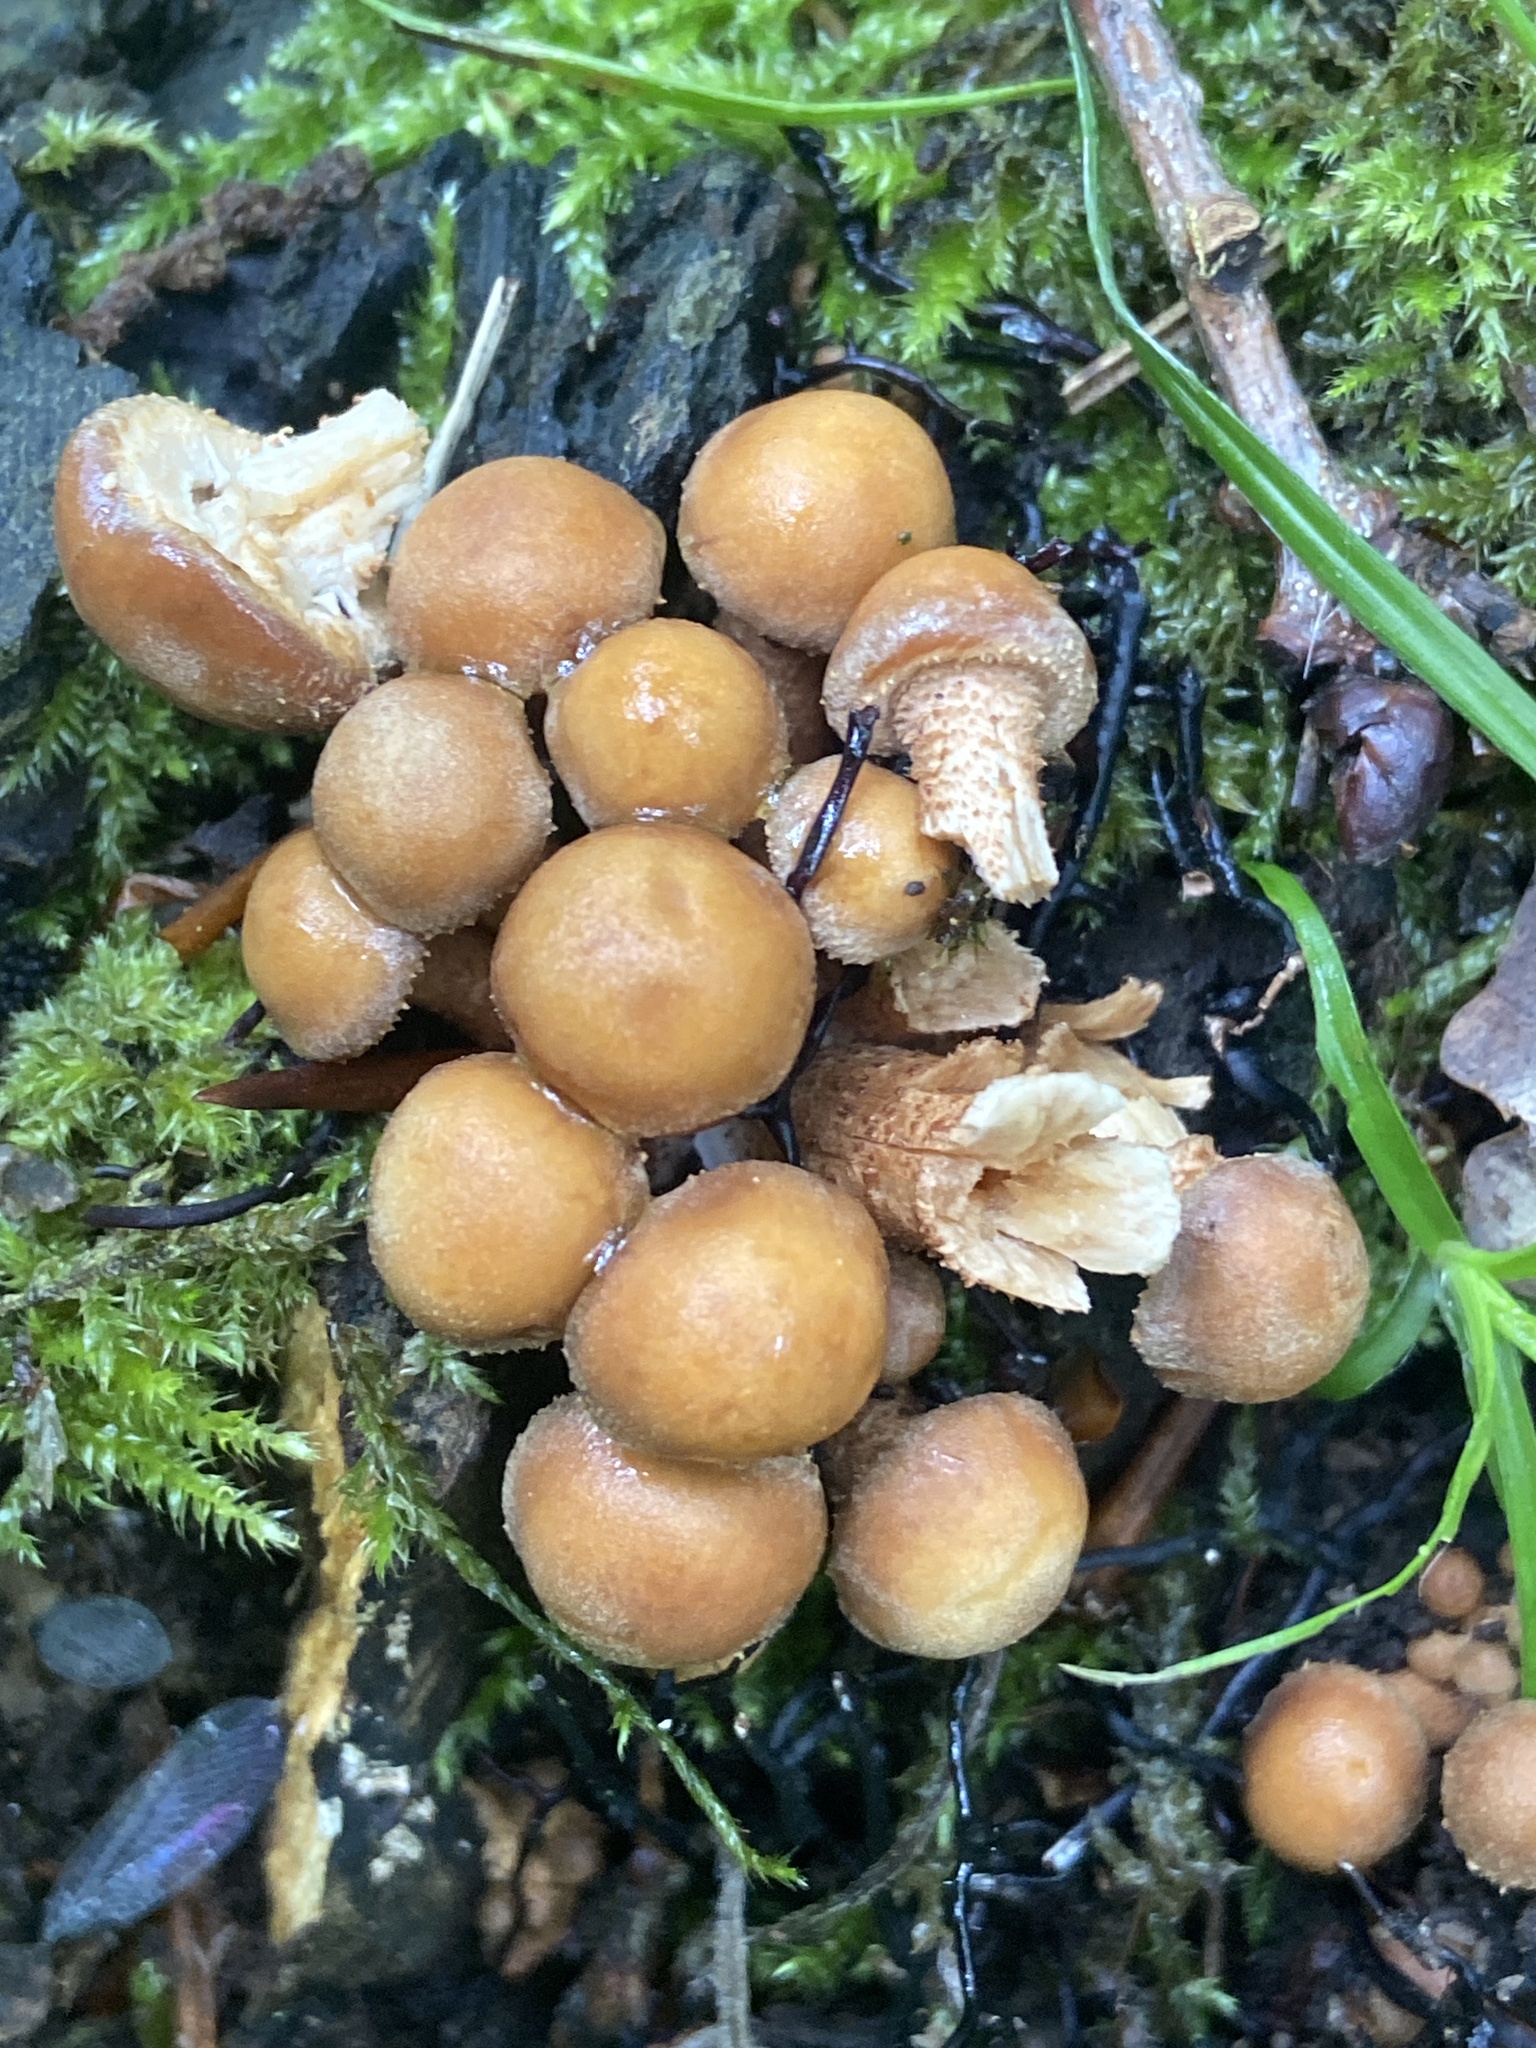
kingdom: Fungi
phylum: Basidiomycota
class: Agaricomycetes
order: Agaricales
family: Strophariaceae
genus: Kuehneromyces
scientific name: Kuehneromyces mutabilis
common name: Sheathed woodtuft
